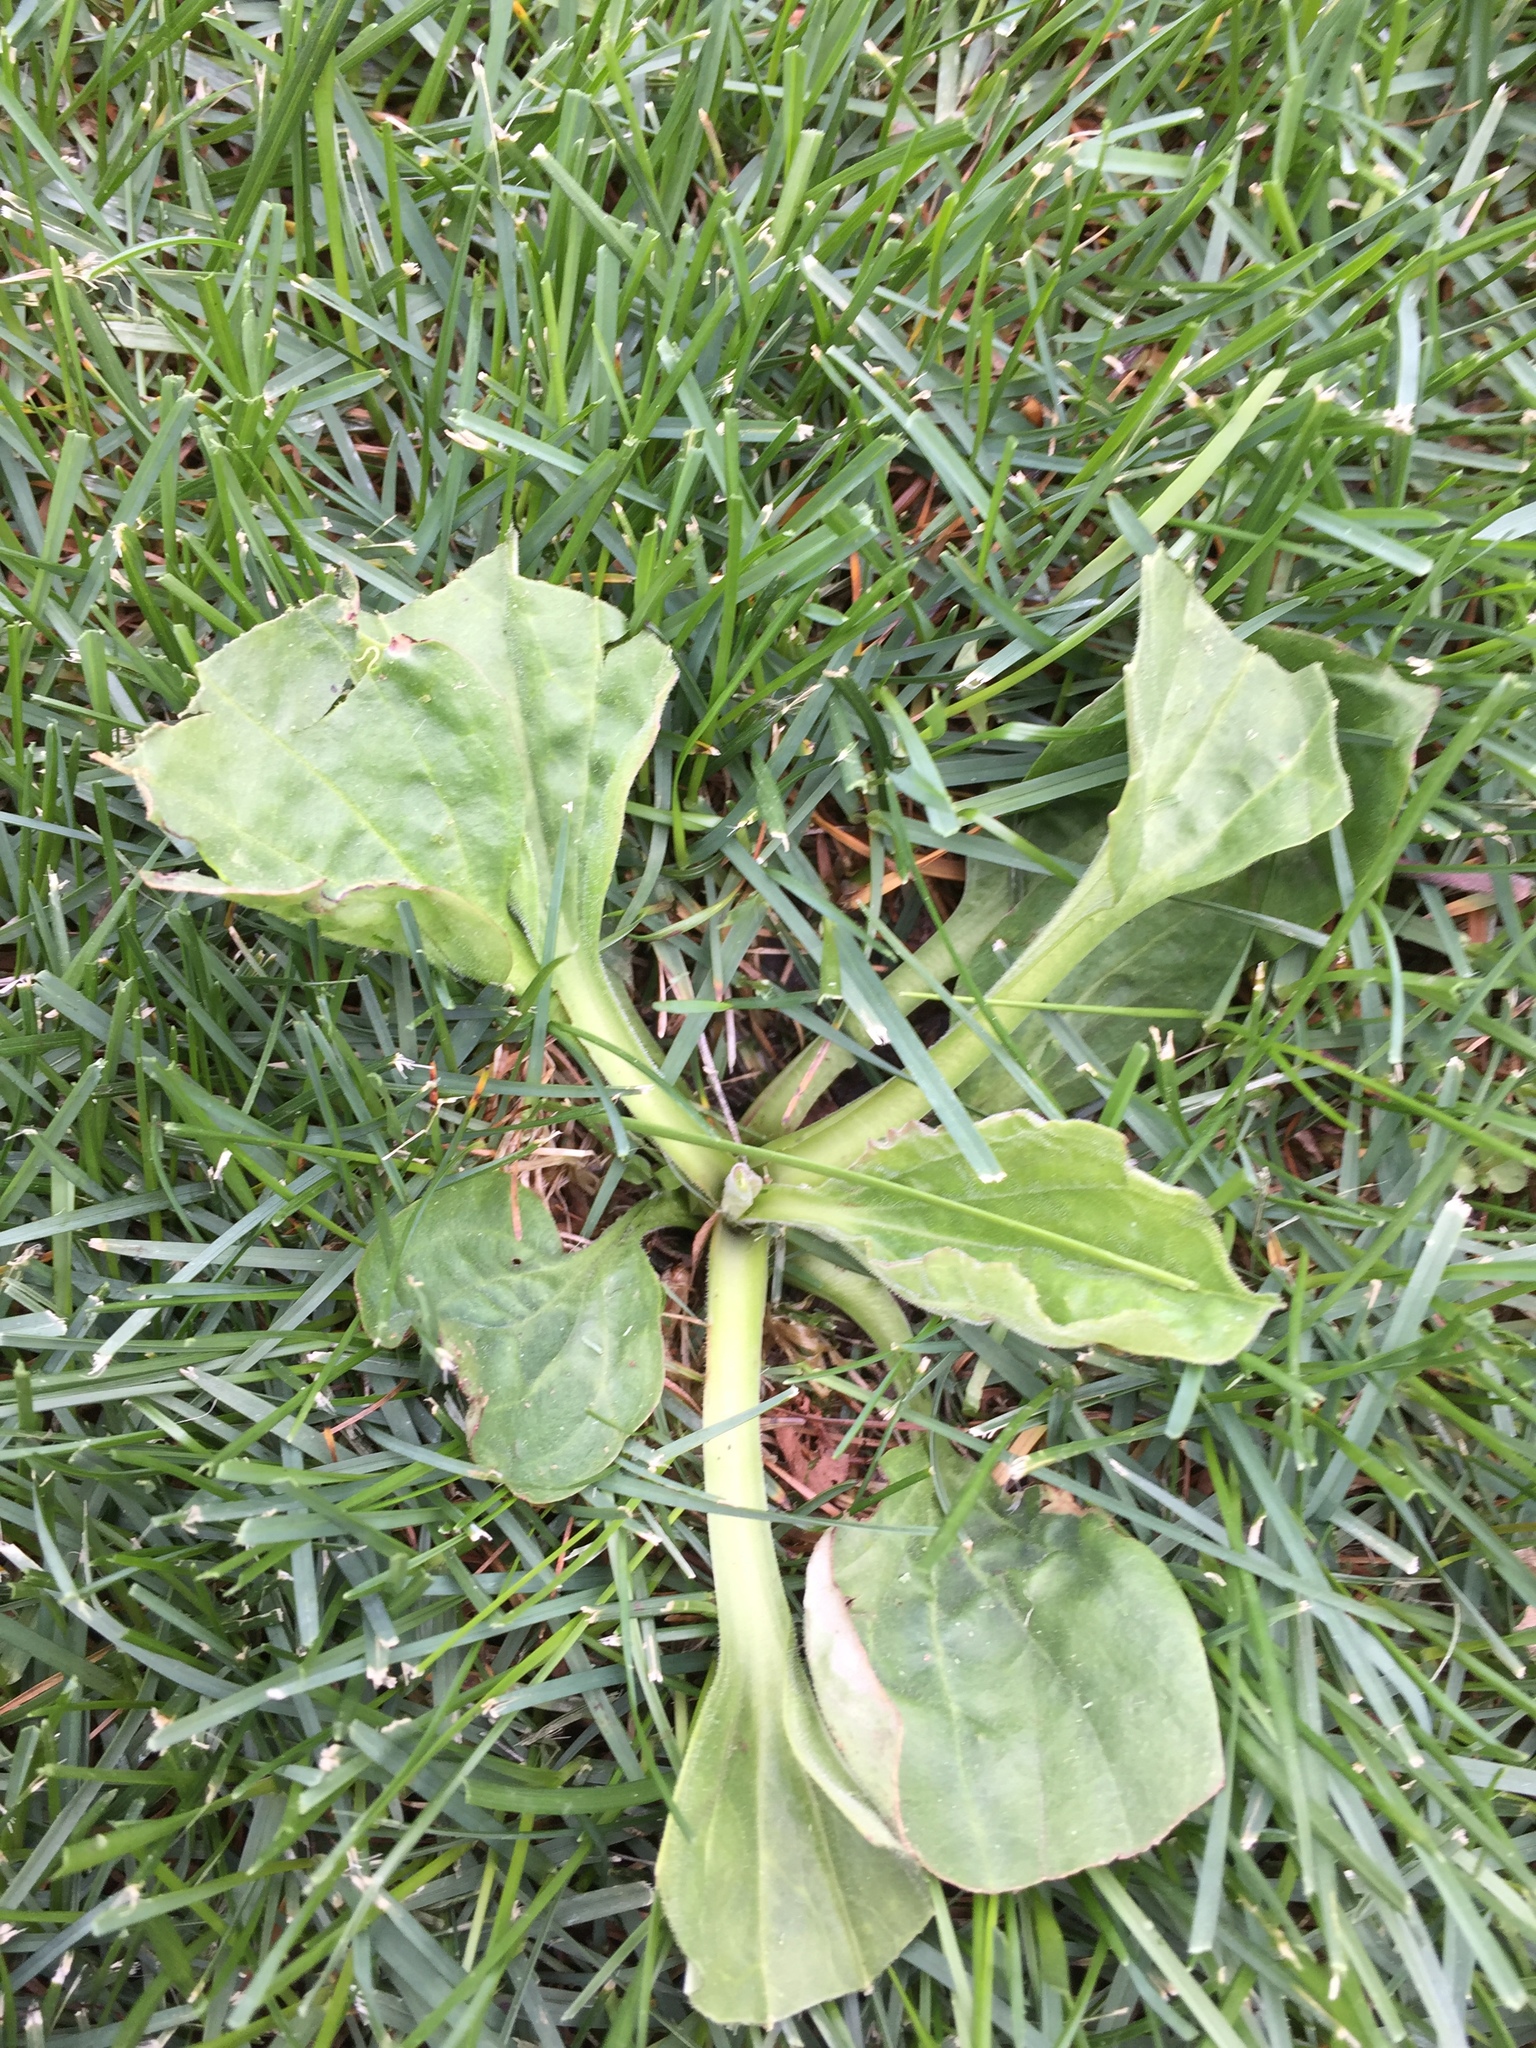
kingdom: Plantae
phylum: Tracheophyta
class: Magnoliopsida
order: Lamiales
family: Plantaginaceae
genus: Plantago
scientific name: Plantago major
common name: Common plantain
